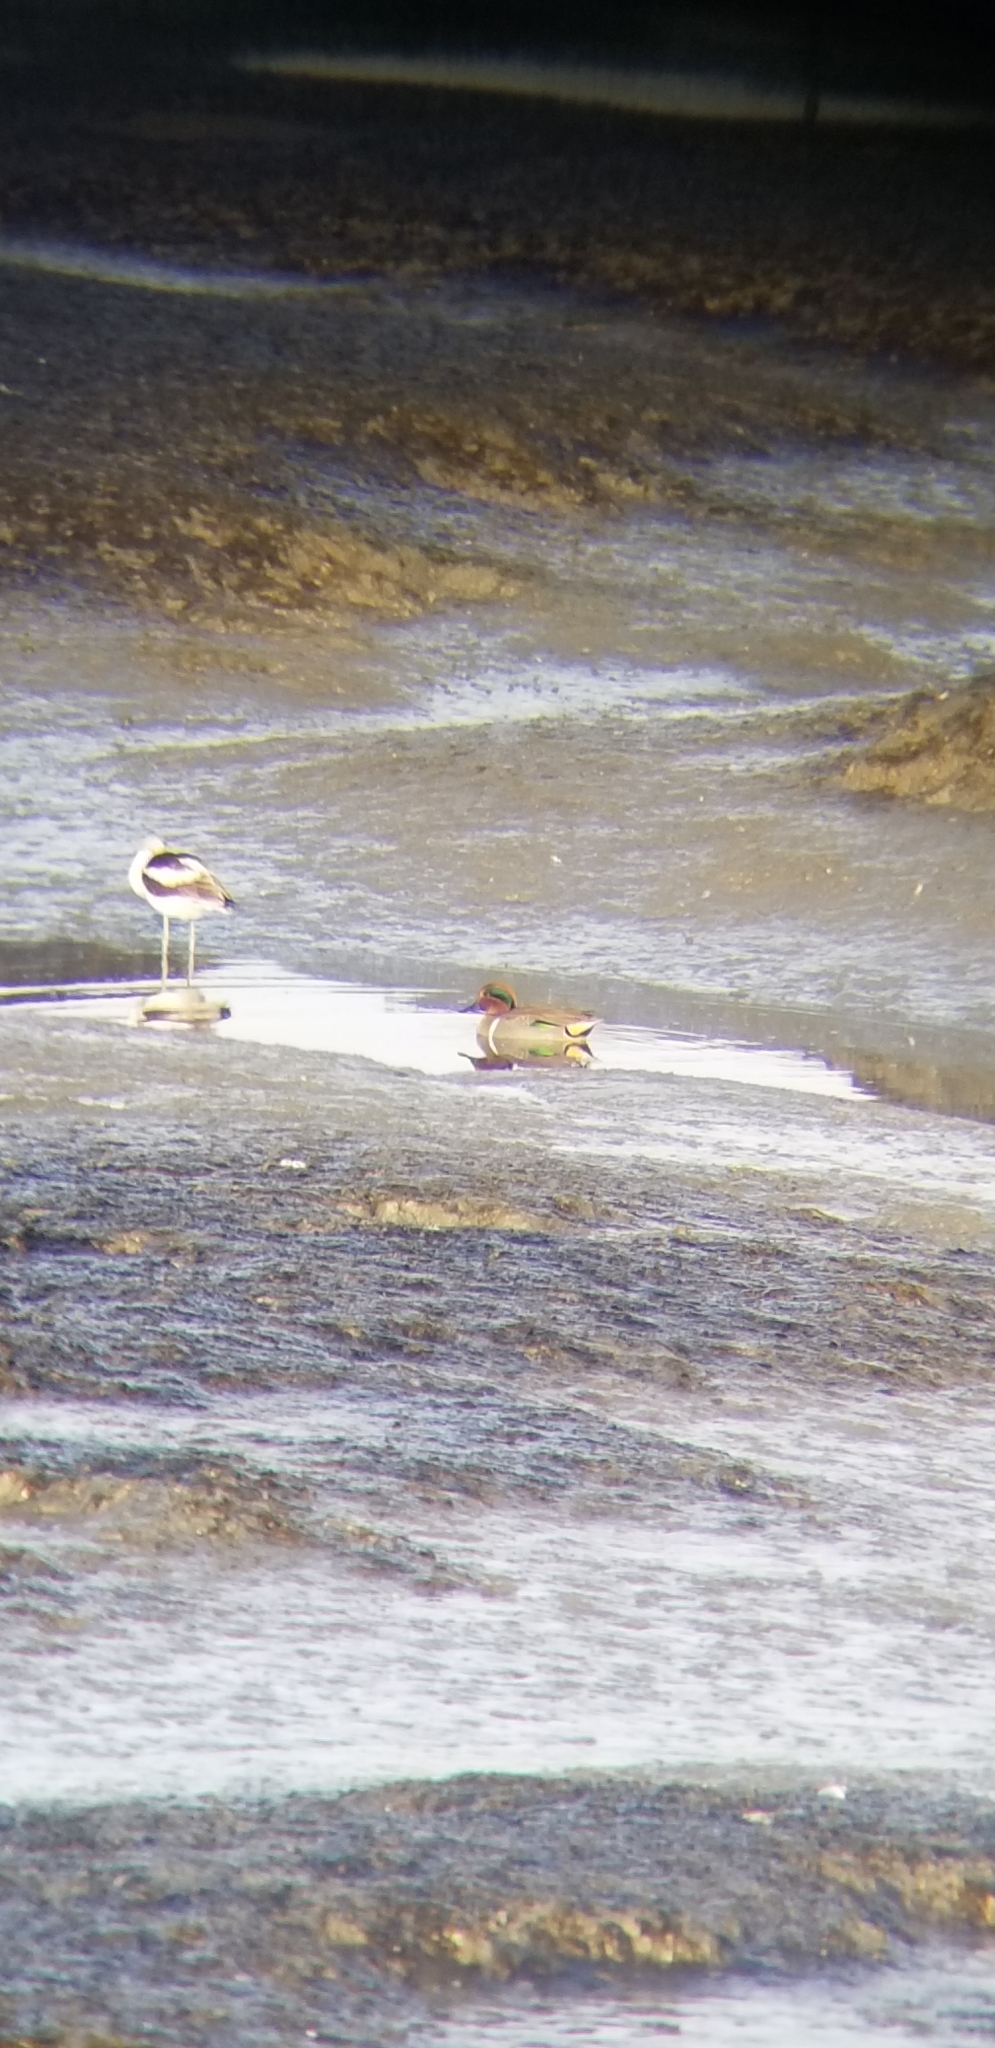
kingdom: Animalia
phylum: Chordata
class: Aves
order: Anseriformes
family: Anatidae
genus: Anas
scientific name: Anas crecca
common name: Eurasian teal
